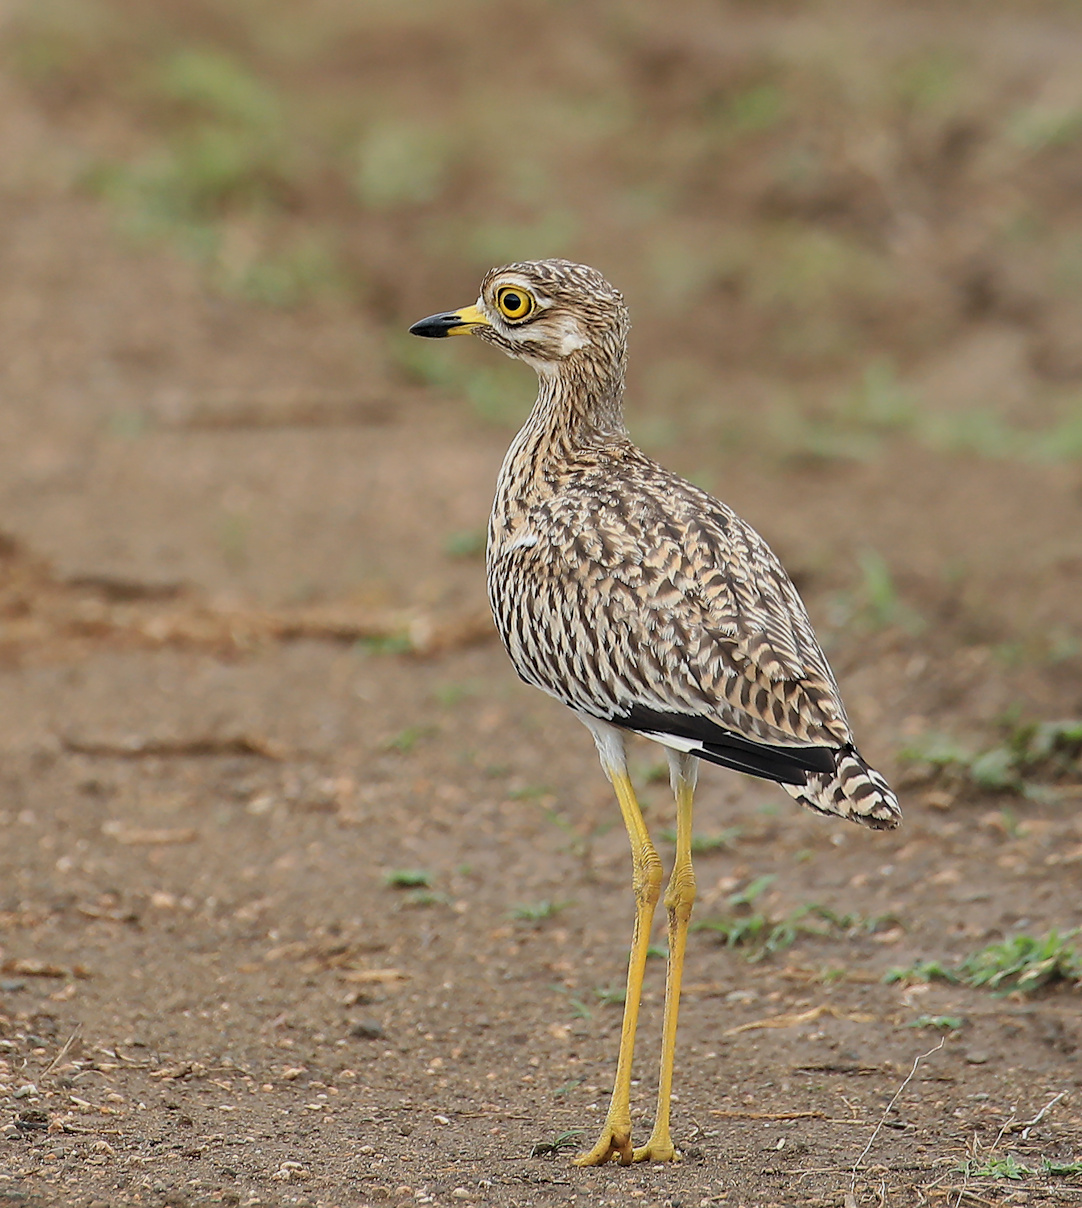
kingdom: Animalia
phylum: Chordata
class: Aves
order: Charadriiformes
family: Burhinidae
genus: Burhinus
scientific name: Burhinus capensis
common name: Spotted thick-knee
